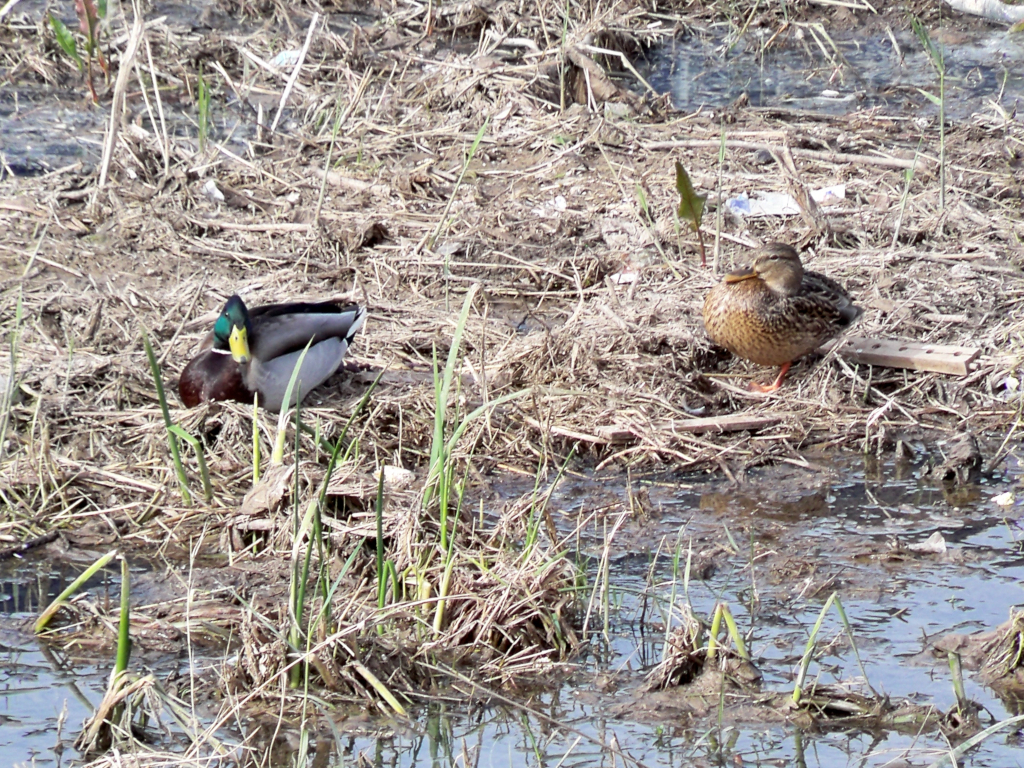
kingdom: Animalia
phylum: Chordata
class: Aves
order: Anseriformes
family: Anatidae
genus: Anas
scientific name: Anas platyrhynchos
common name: Mallard
